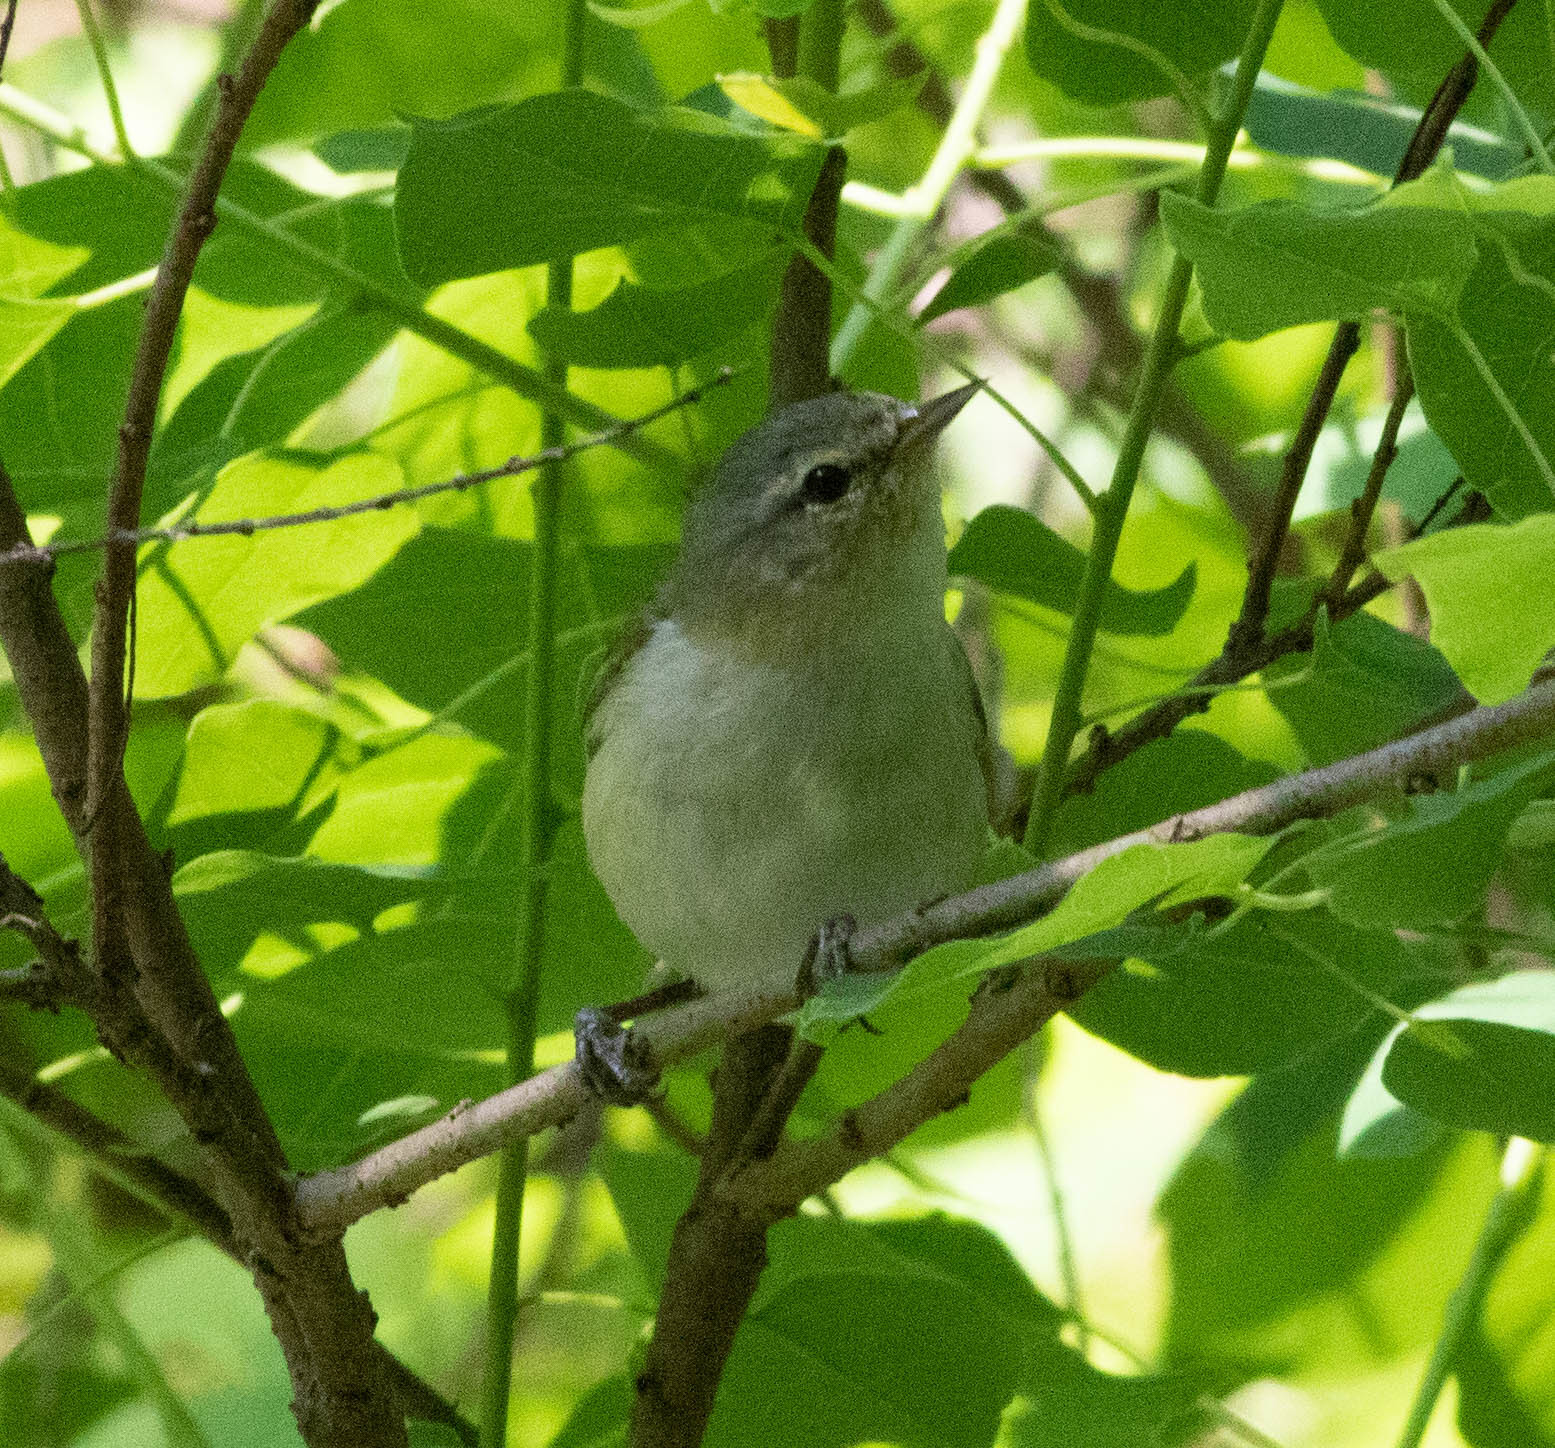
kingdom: Animalia
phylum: Chordata
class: Aves
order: Passeriformes
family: Parulidae
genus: Leiothlypis
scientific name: Leiothlypis peregrina
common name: Tennessee warbler
